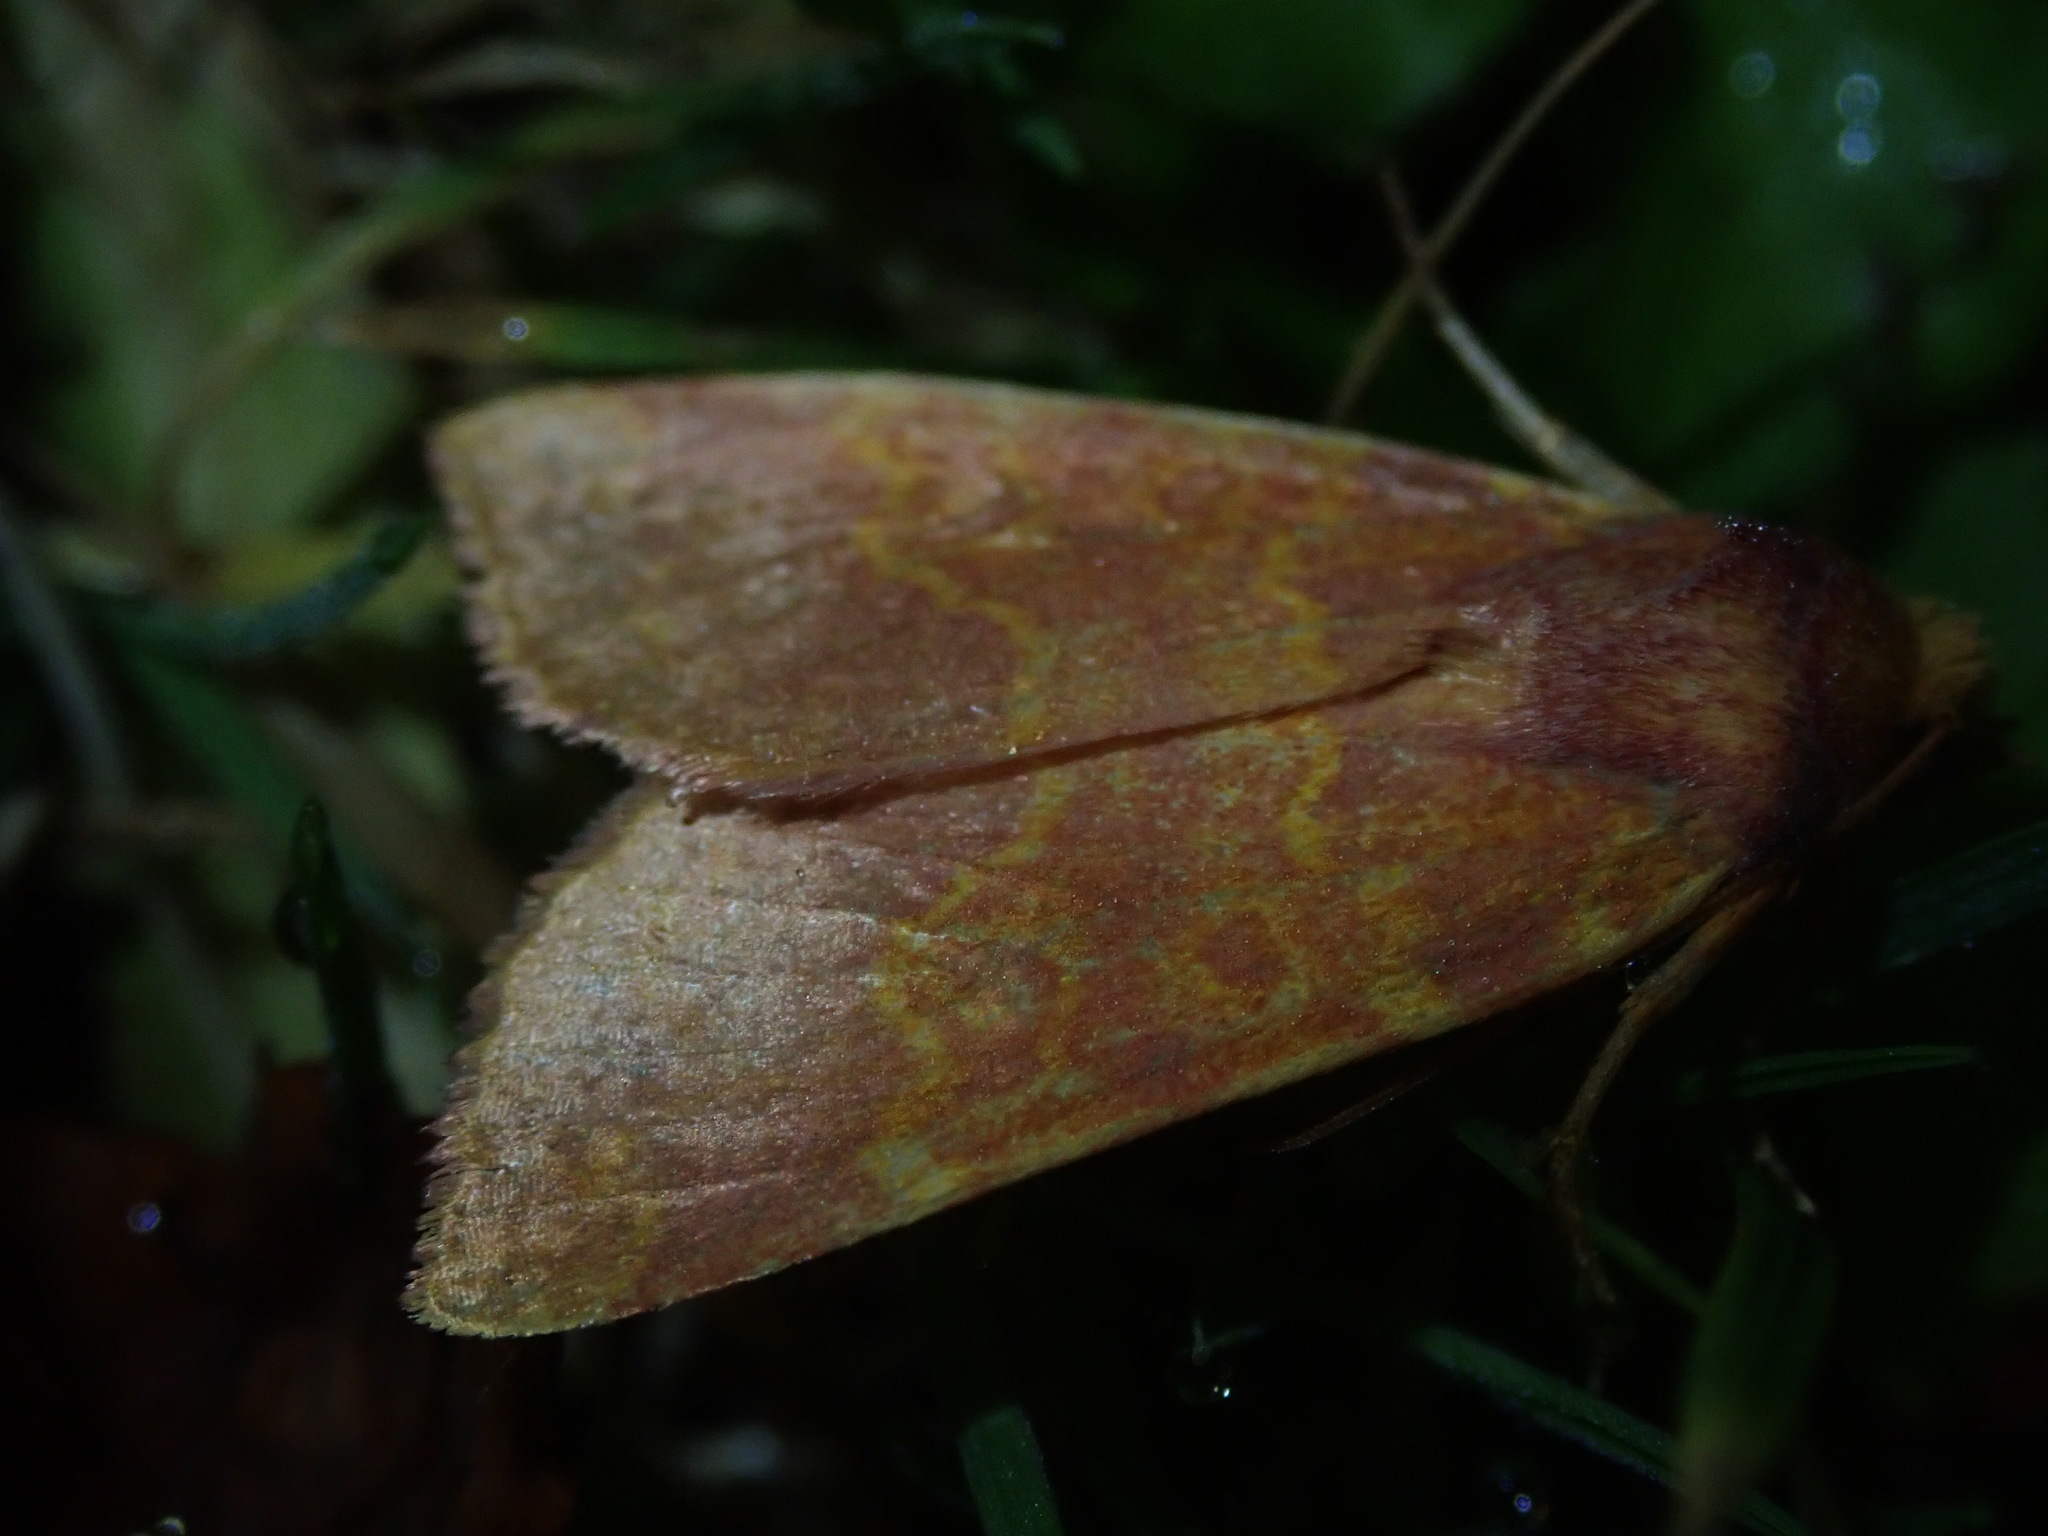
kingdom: Animalia
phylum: Arthropoda
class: Insecta
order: Lepidoptera
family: Noctuidae
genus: Tiliacea
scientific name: Tiliacea aurago
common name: Barred sallow
